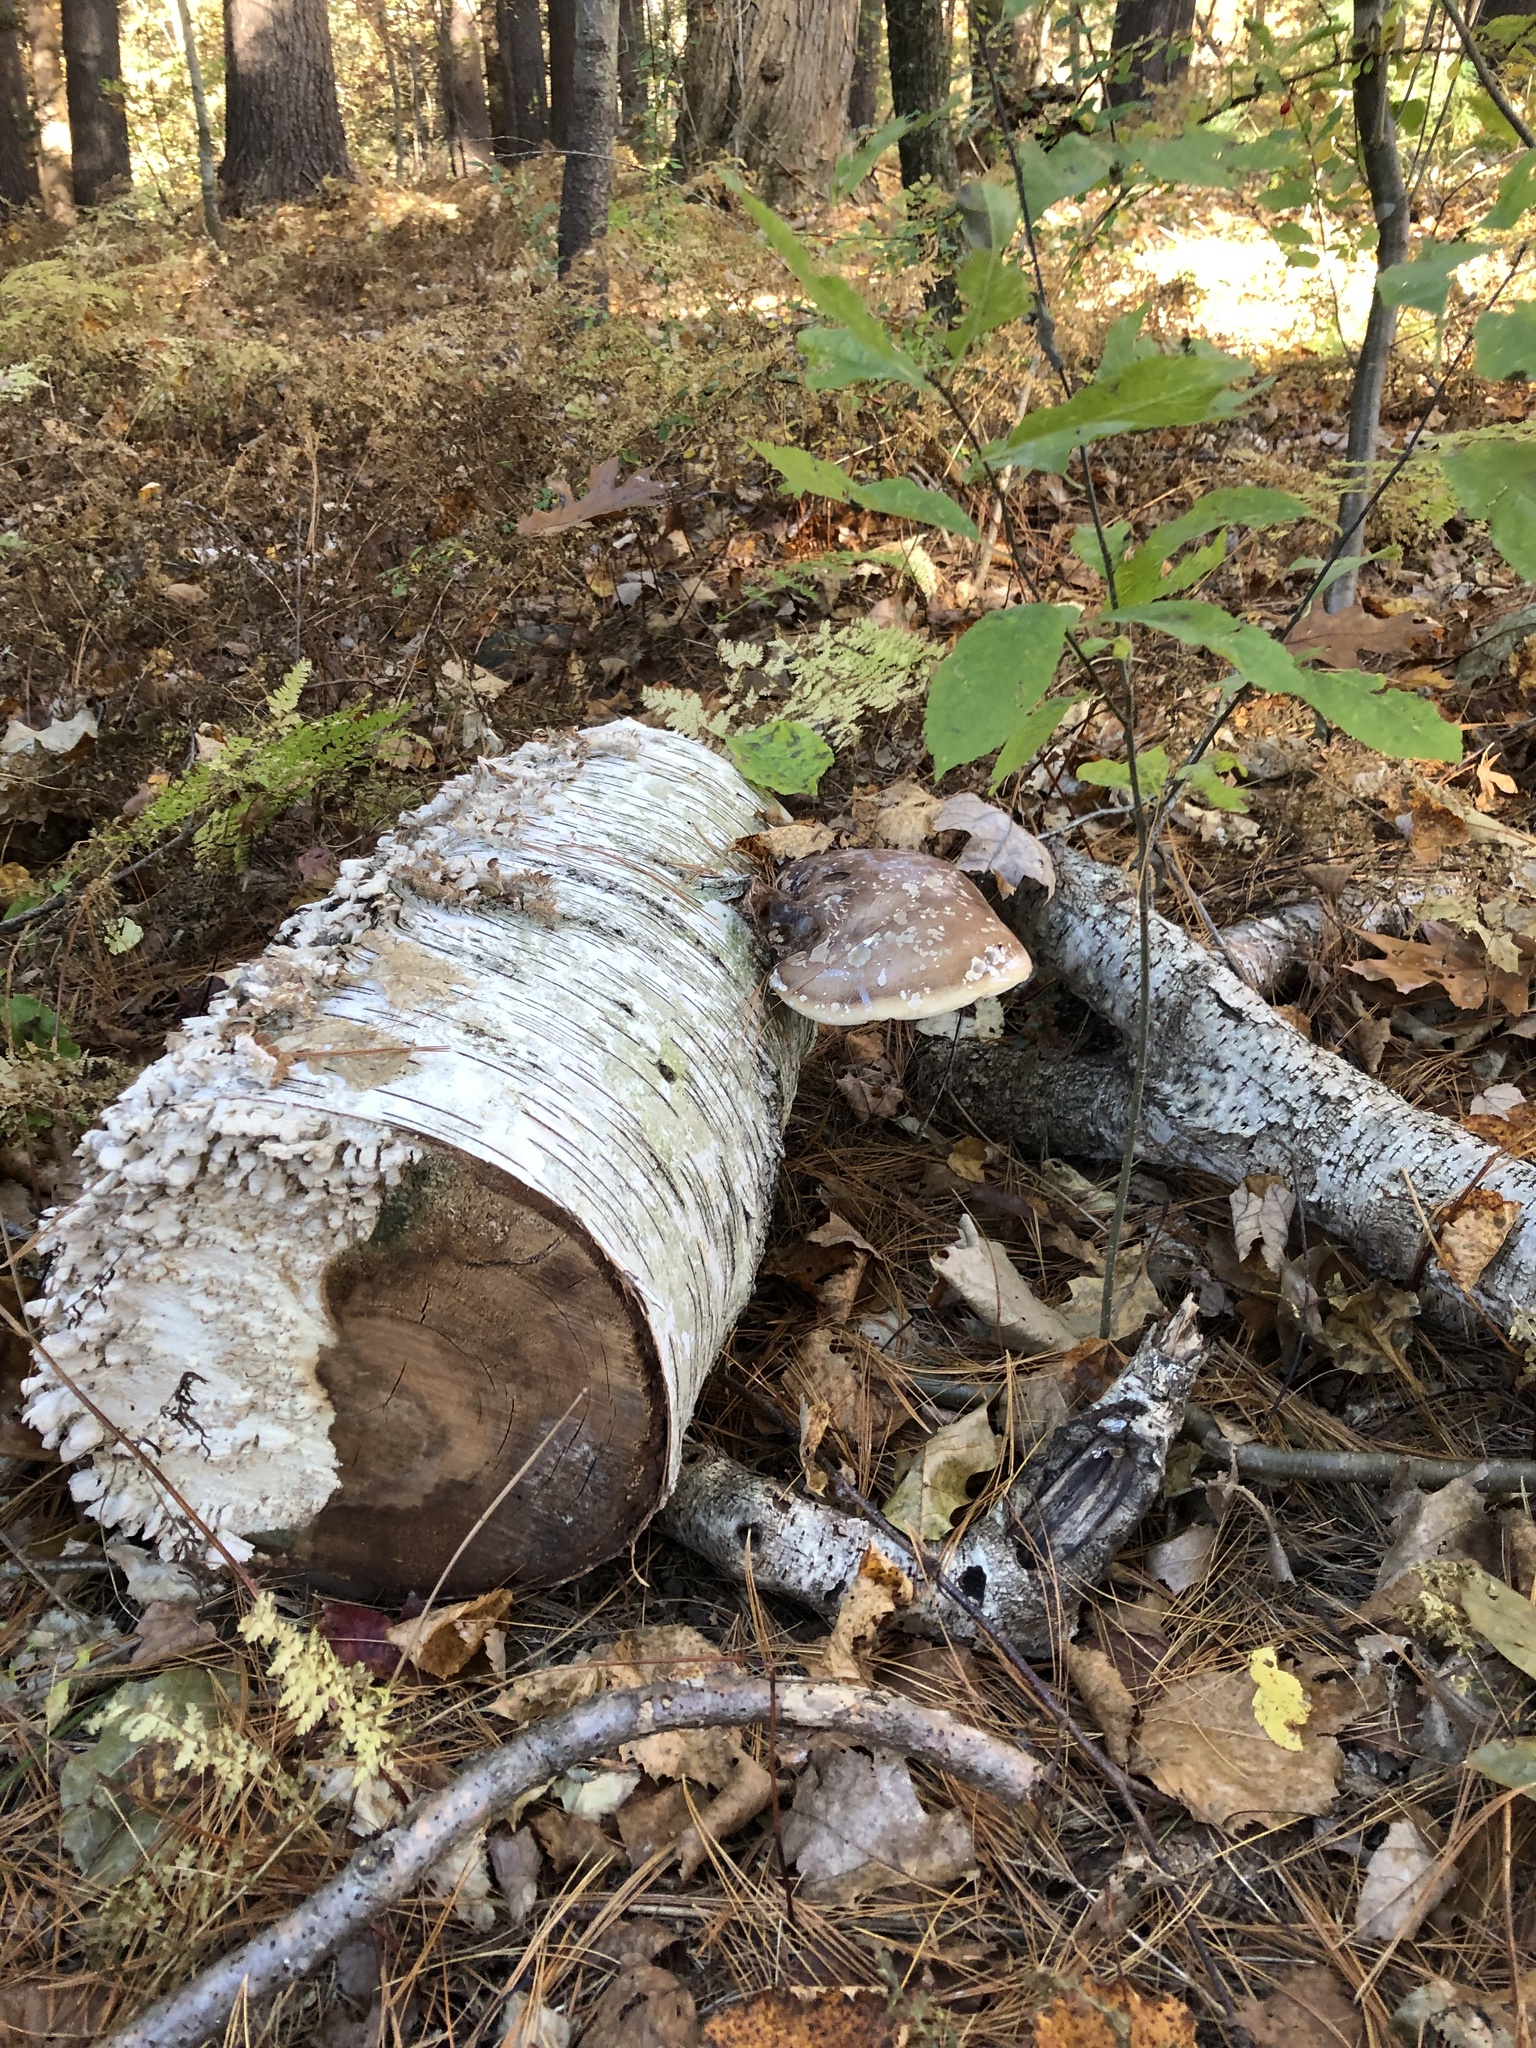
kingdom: Fungi
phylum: Basidiomycota
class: Agaricomycetes
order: Polyporales
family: Fomitopsidaceae
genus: Fomitopsis
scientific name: Fomitopsis betulina
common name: Birch polypore
